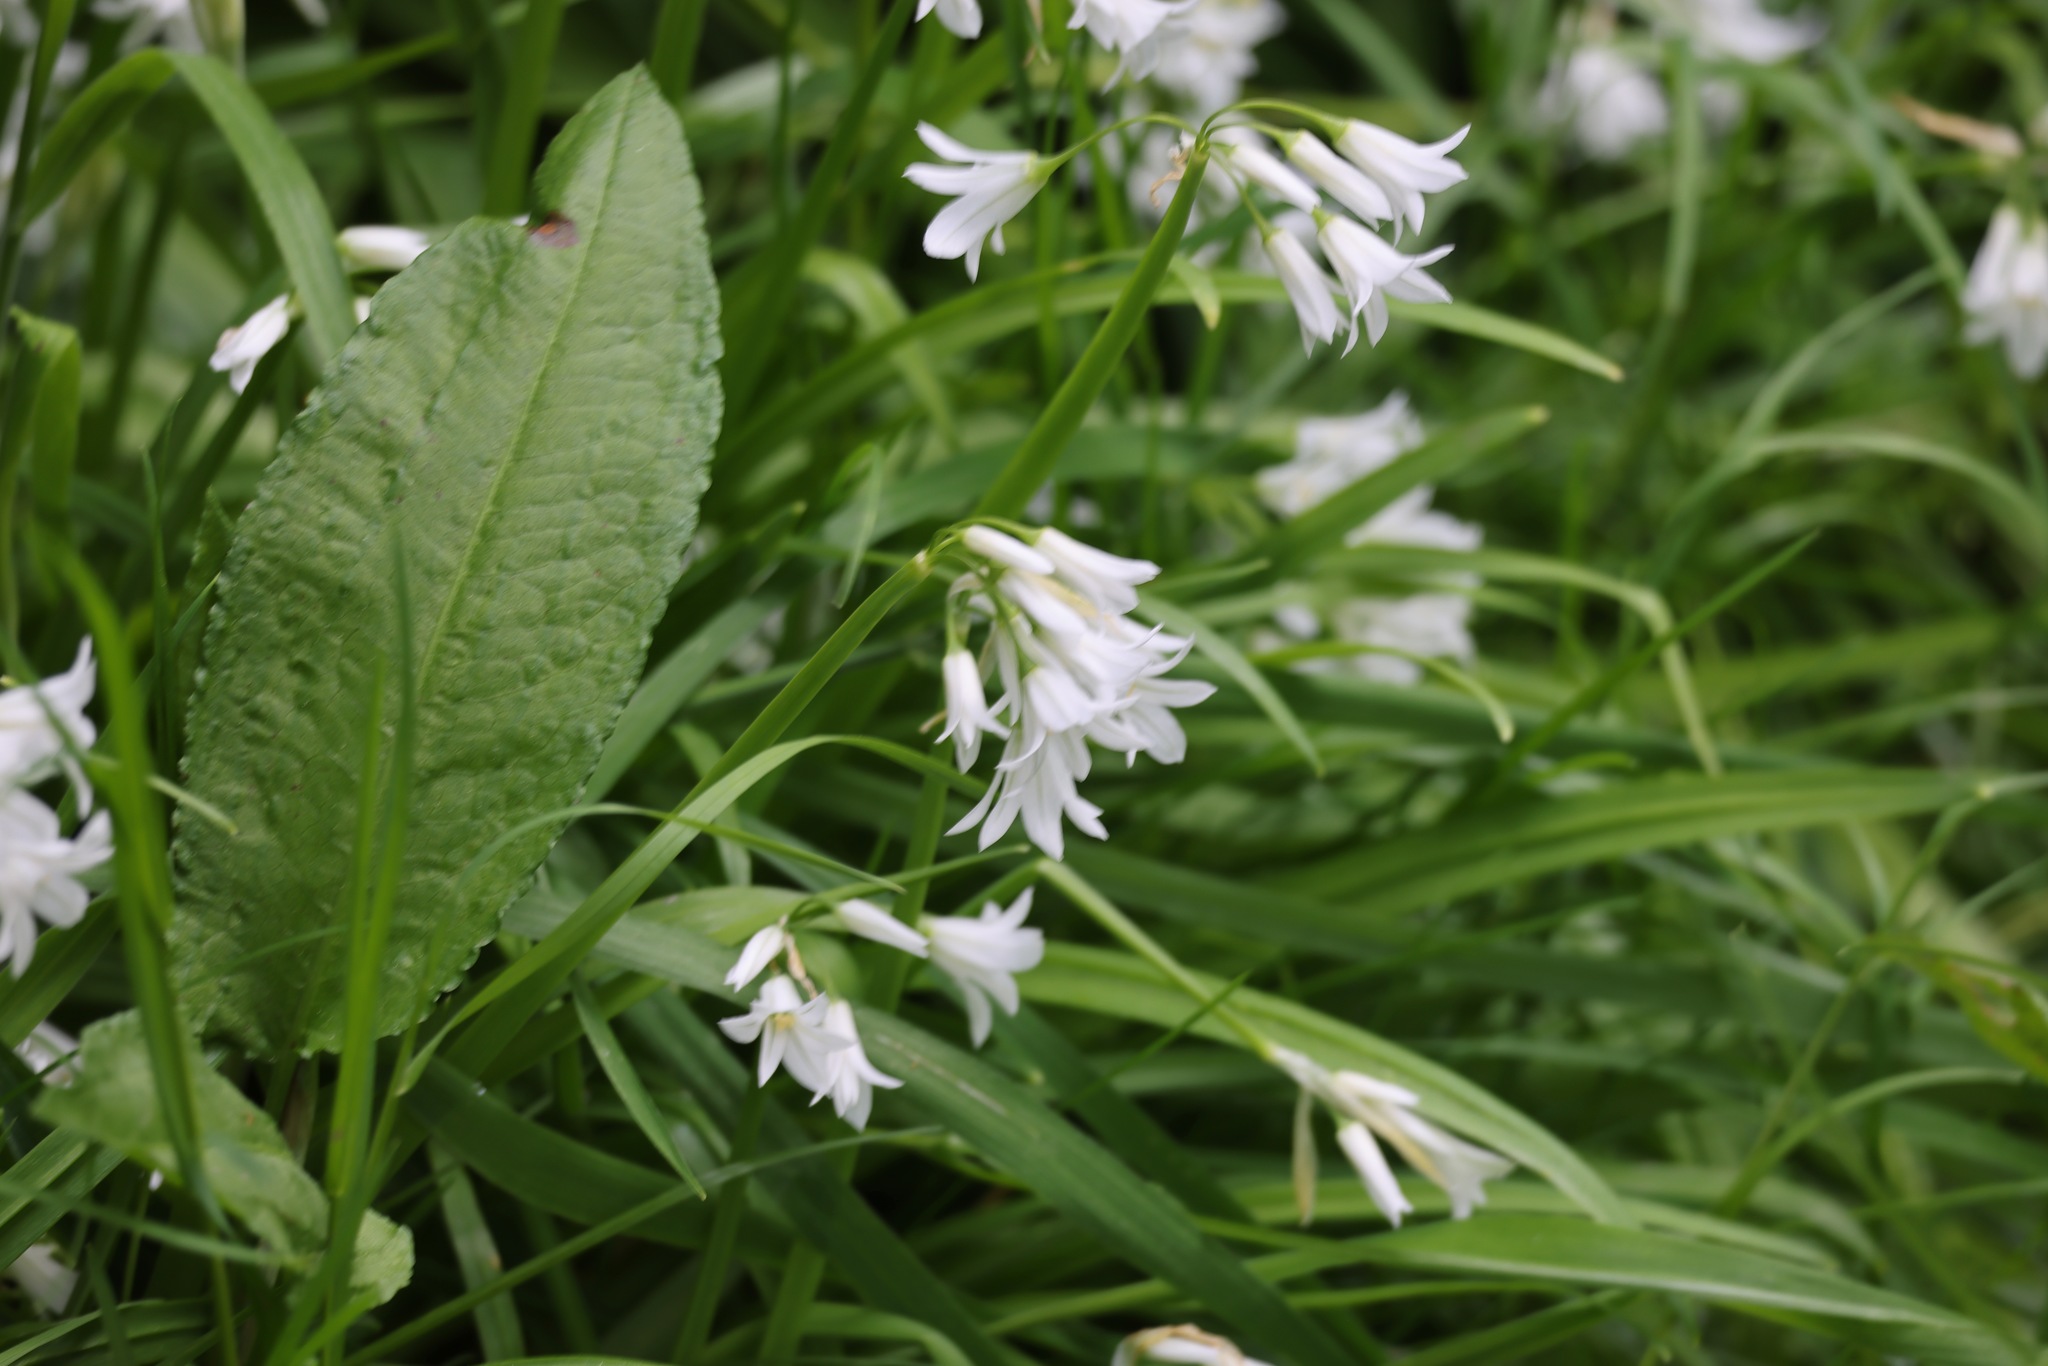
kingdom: Plantae
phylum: Tracheophyta
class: Liliopsida
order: Asparagales
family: Amaryllidaceae
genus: Allium
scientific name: Allium triquetrum
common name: Three-cornered garlic
